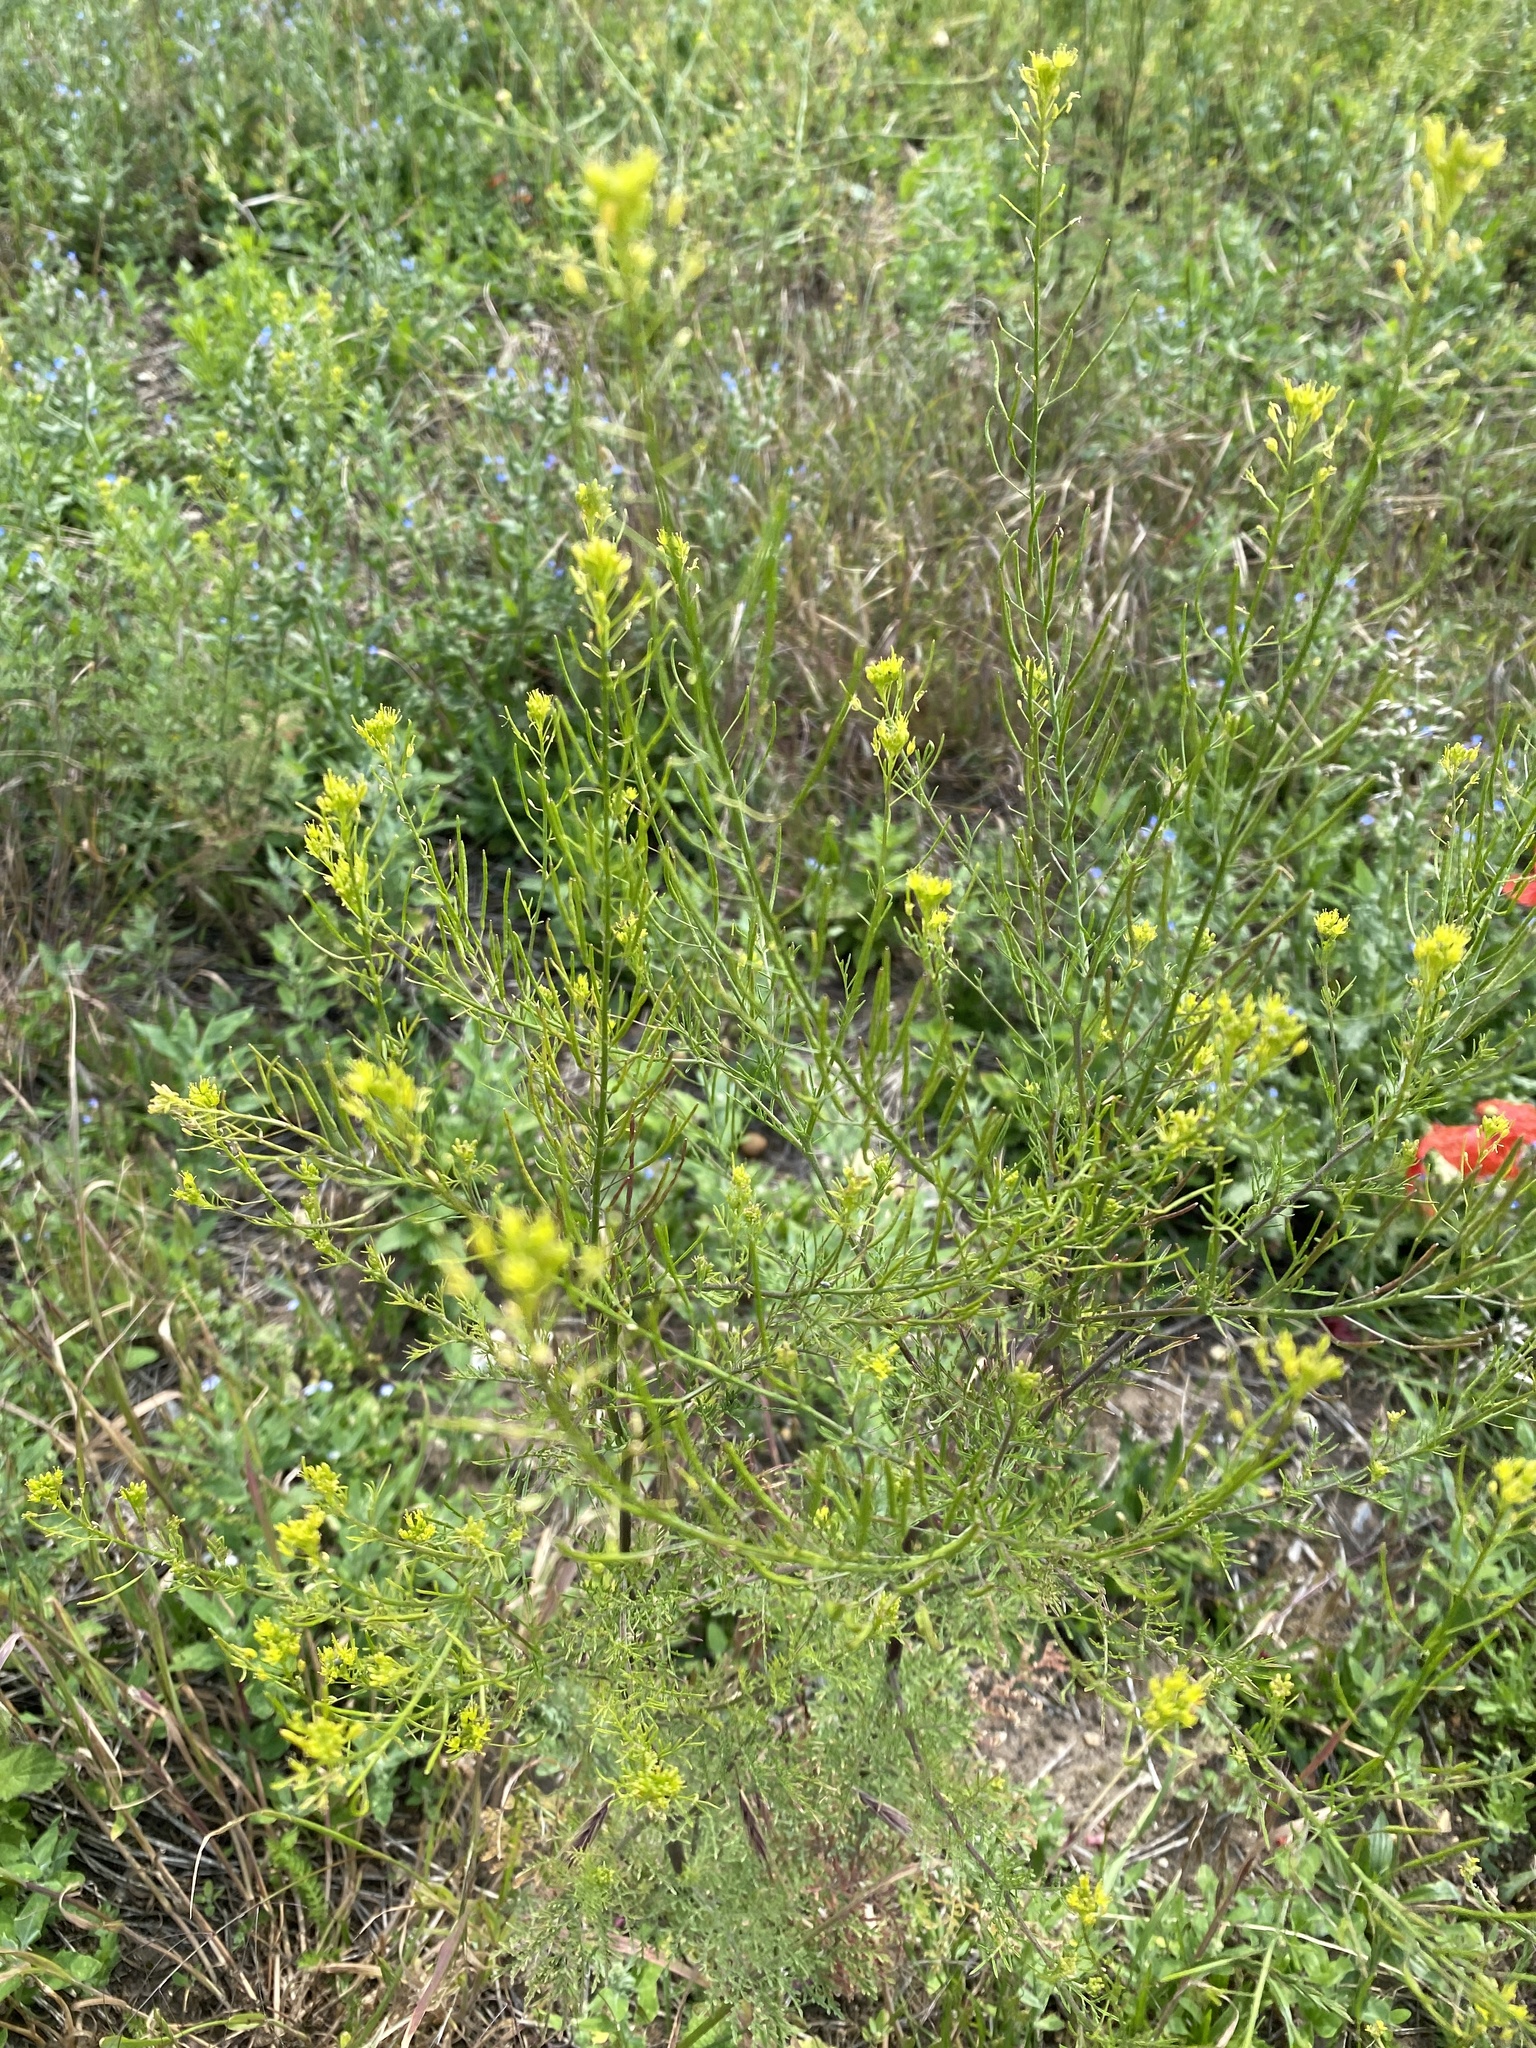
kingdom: Plantae
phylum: Tracheophyta
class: Magnoliopsida
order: Brassicales
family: Brassicaceae
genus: Descurainia
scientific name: Descurainia sophia
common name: Flixweed
